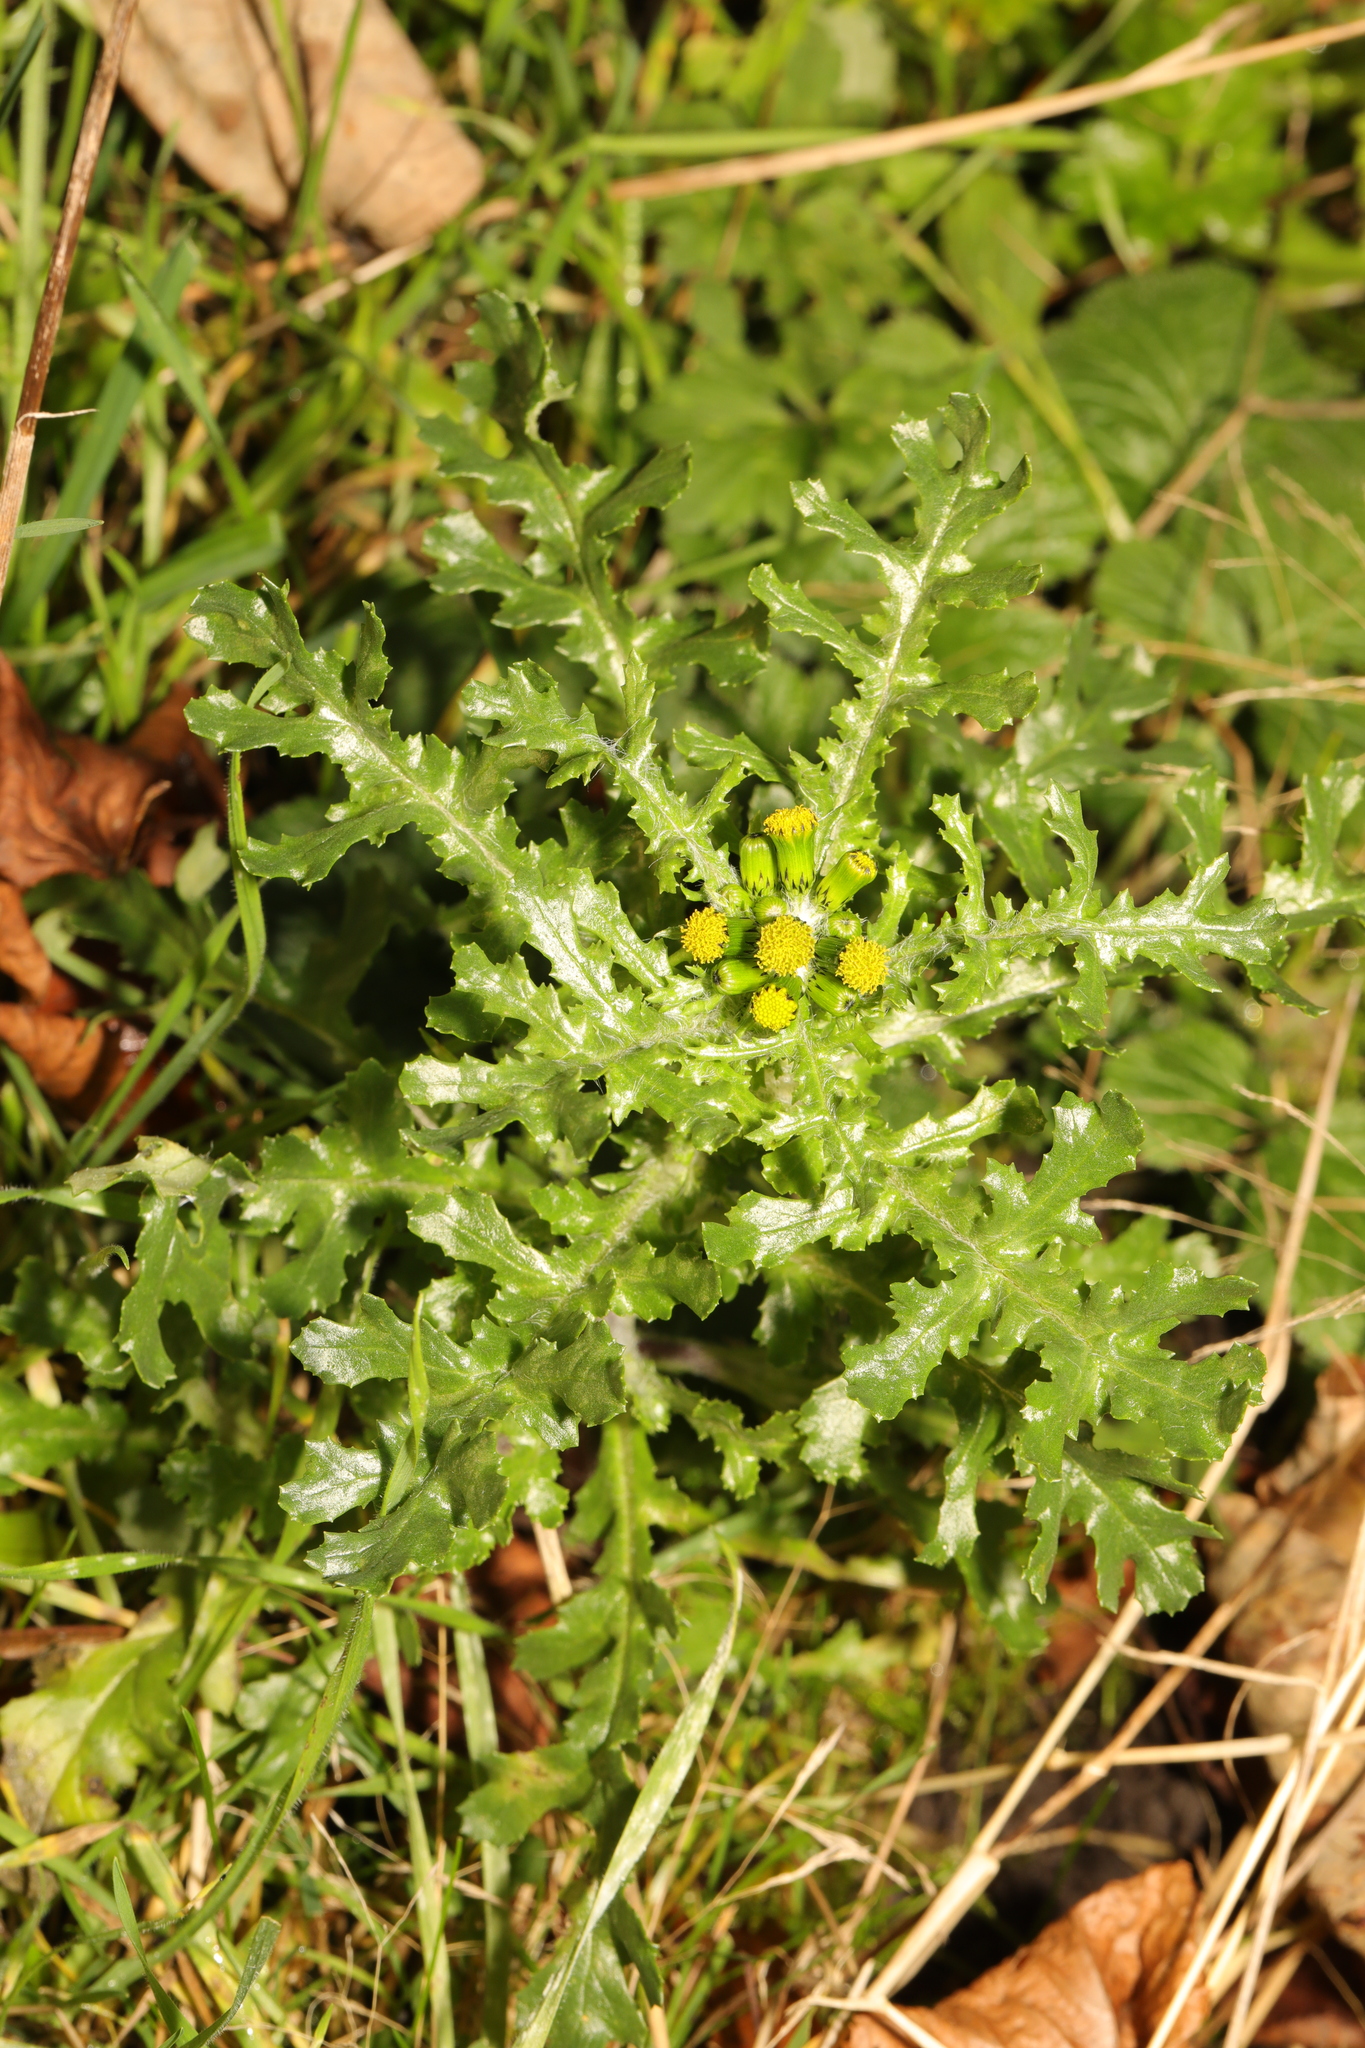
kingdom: Plantae
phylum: Tracheophyta
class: Magnoliopsida
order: Asterales
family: Asteraceae
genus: Senecio
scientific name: Senecio vulgaris
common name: Old-man-in-the-spring
